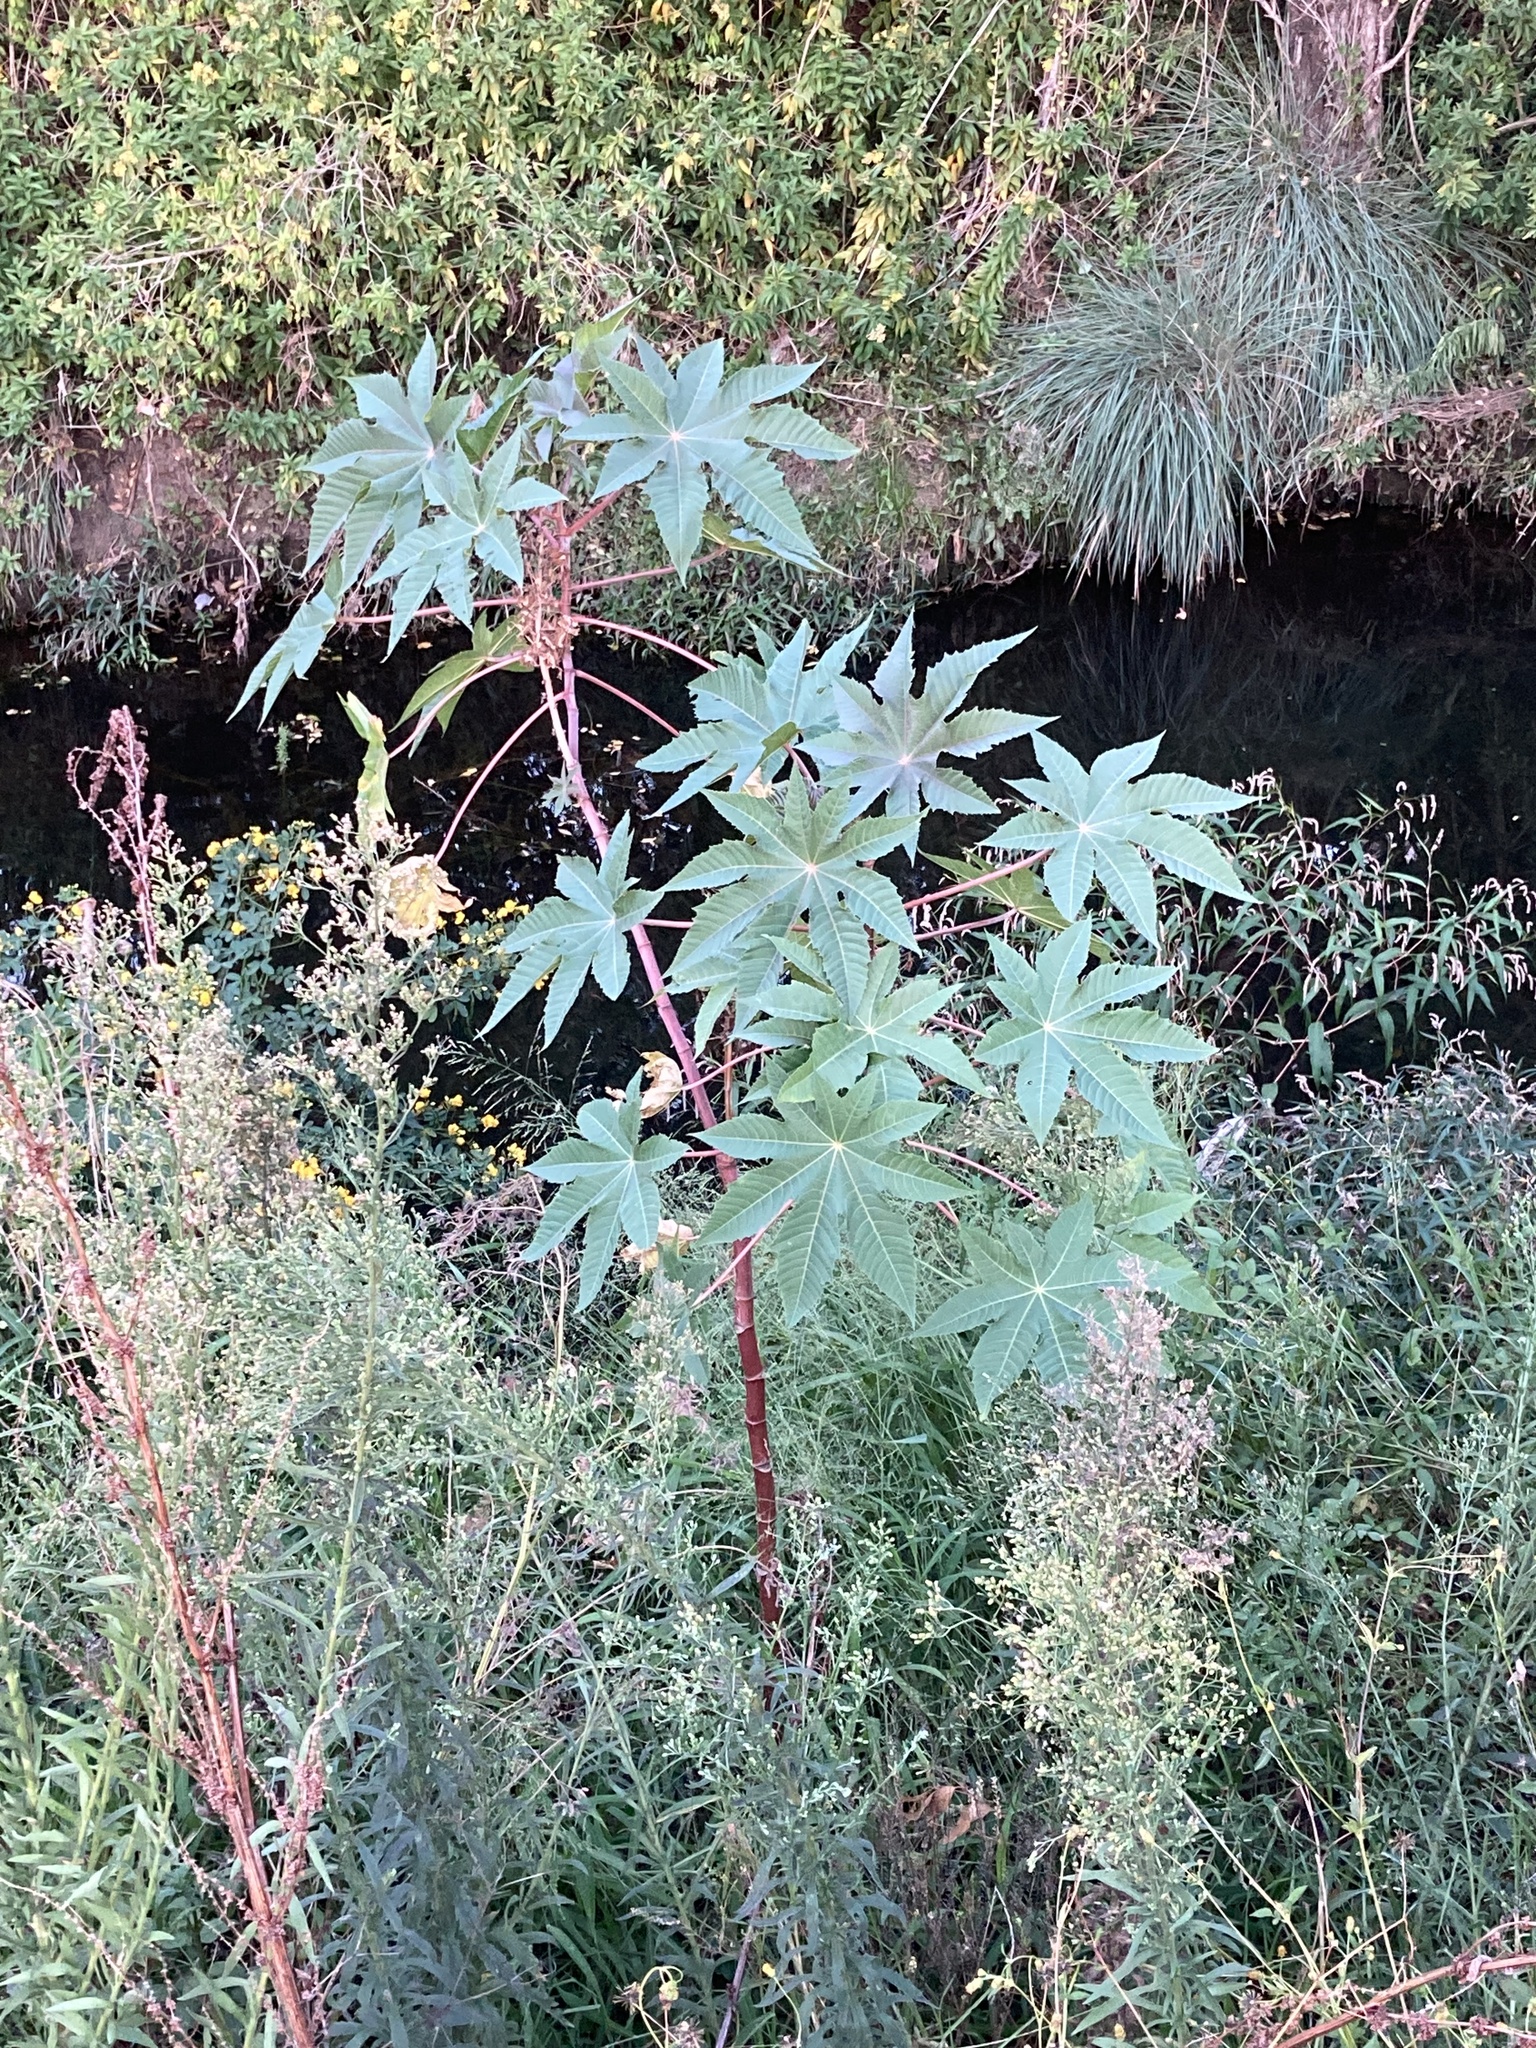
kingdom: Plantae
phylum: Tracheophyta
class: Magnoliopsida
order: Malpighiales
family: Euphorbiaceae
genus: Ricinus
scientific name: Ricinus communis
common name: Castor-oil-plant
